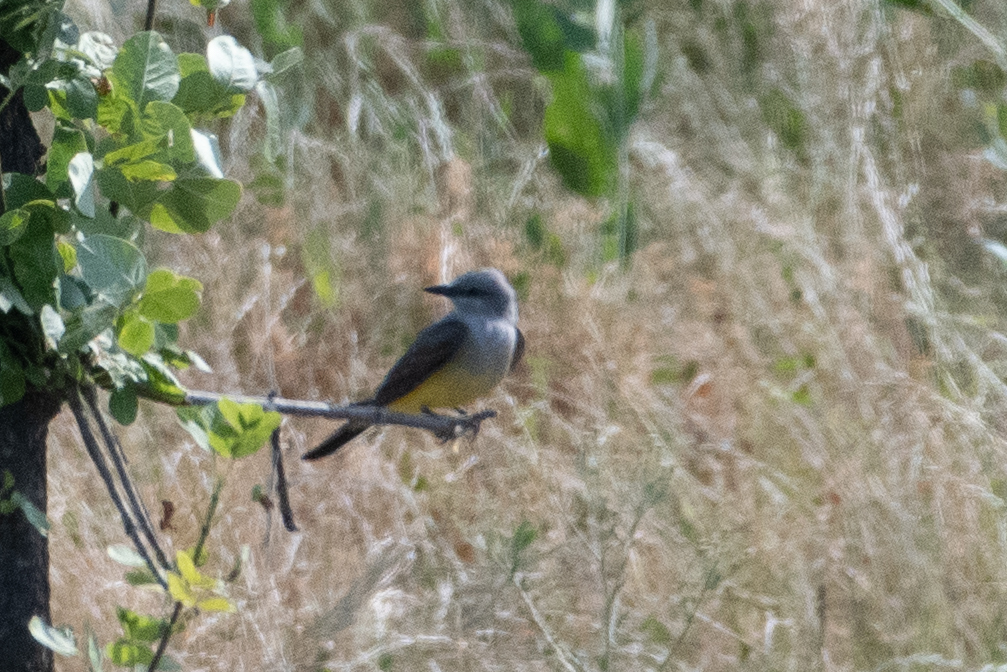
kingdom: Animalia
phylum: Chordata
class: Aves
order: Passeriformes
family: Tyrannidae
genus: Tyrannus
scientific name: Tyrannus verticalis
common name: Western kingbird
